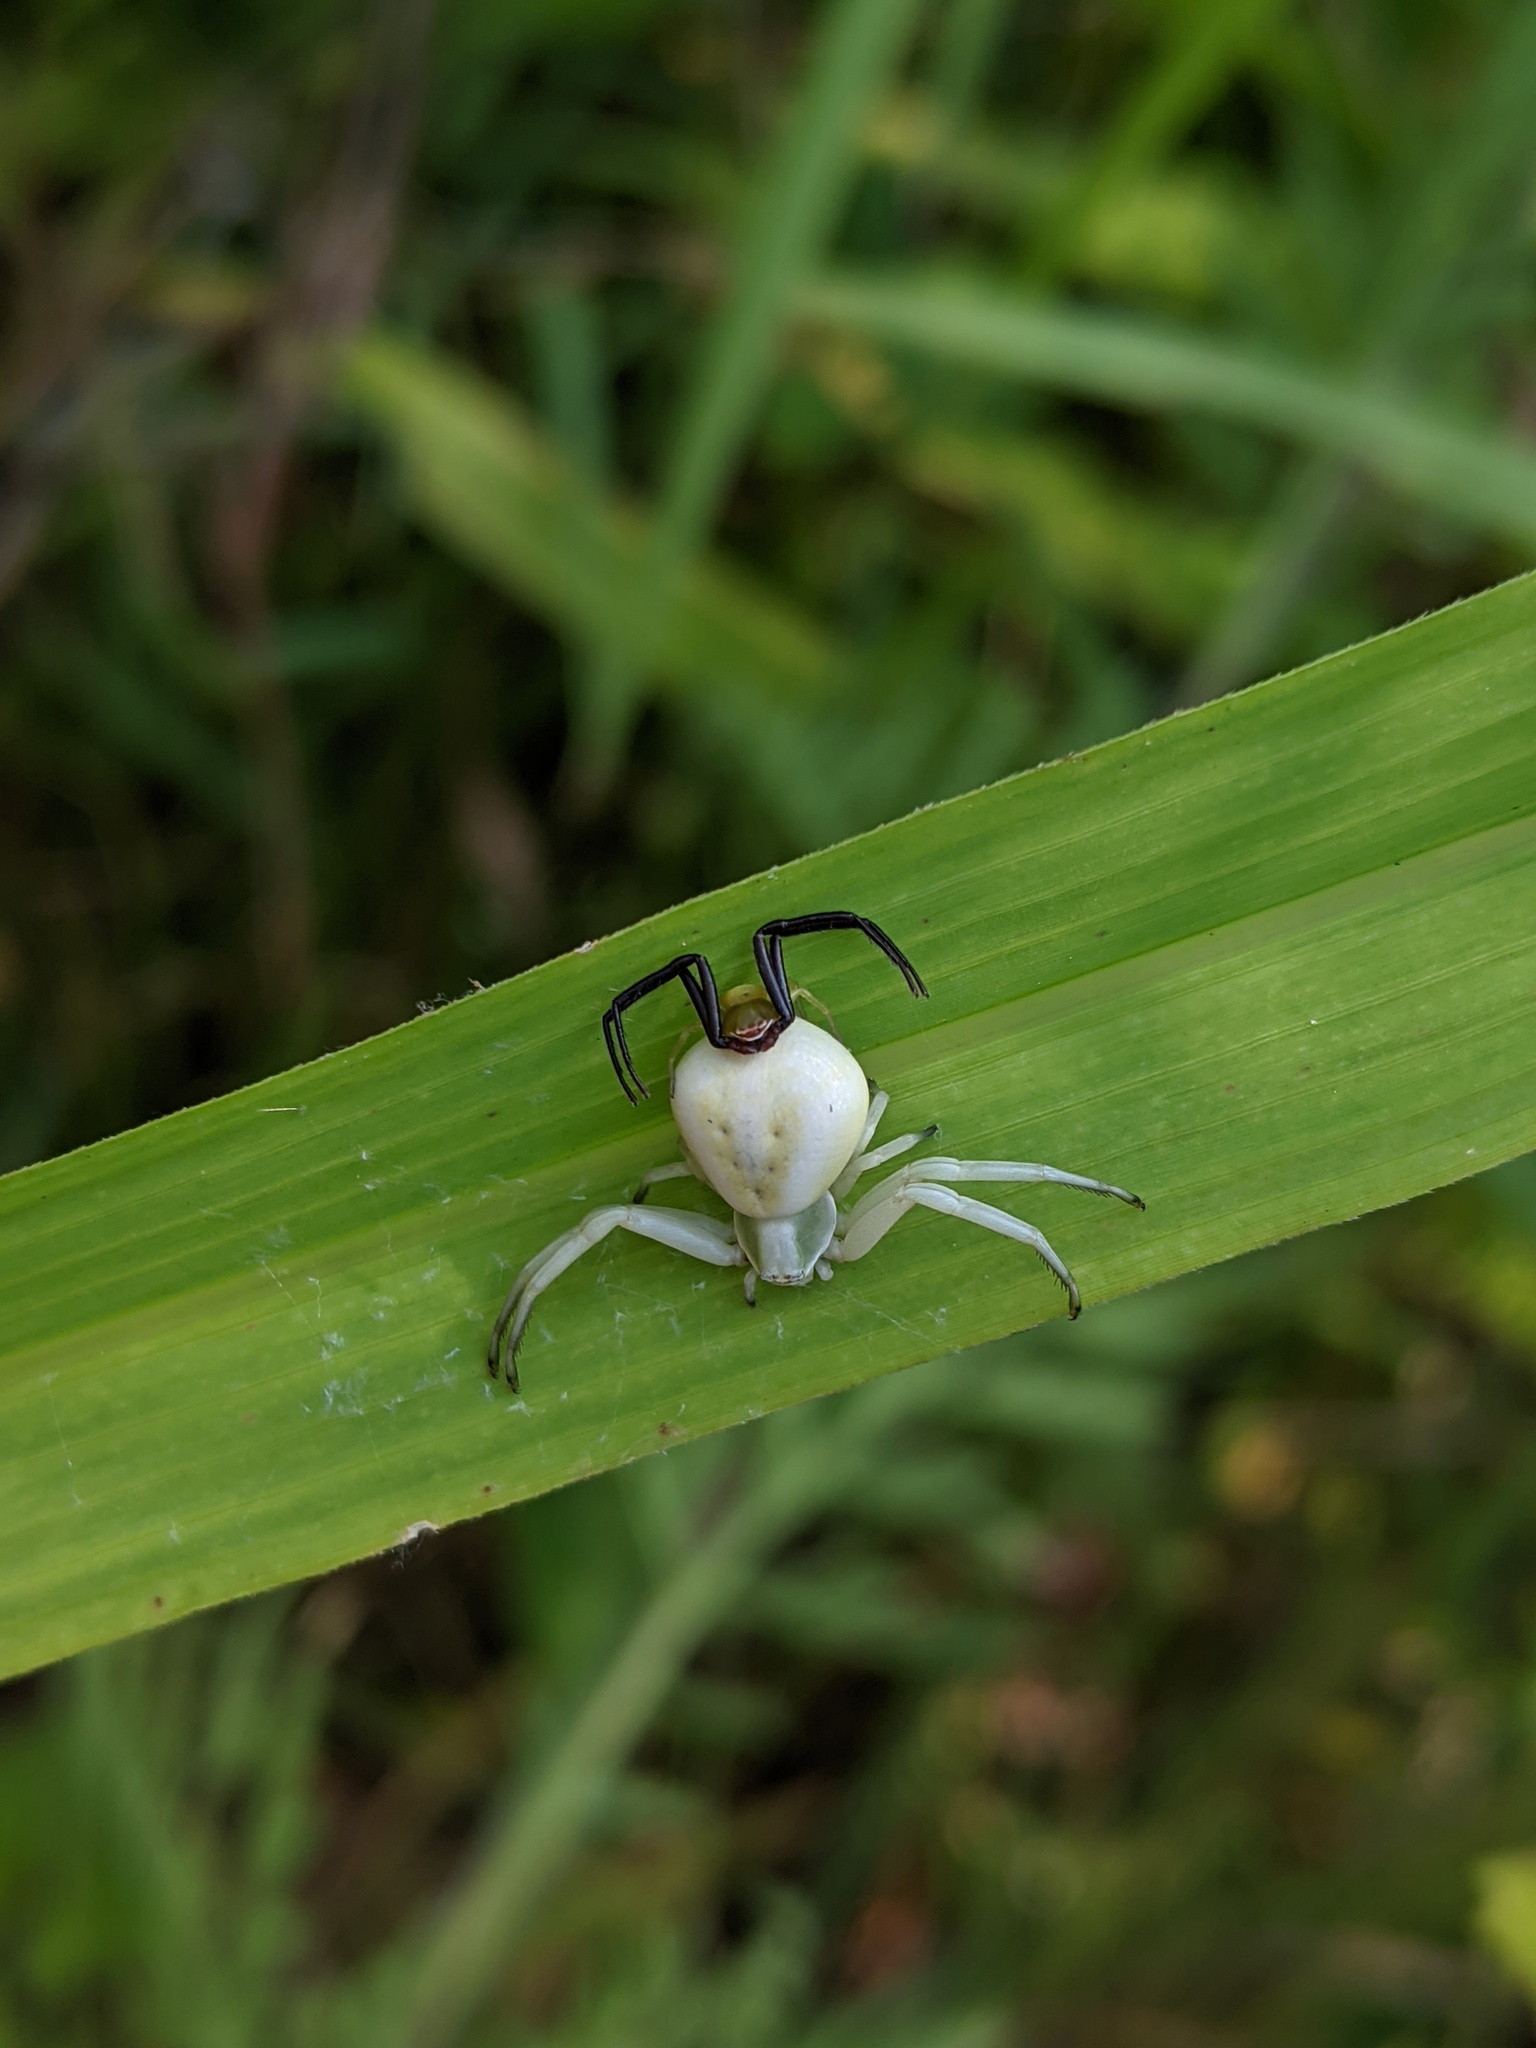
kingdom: Animalia
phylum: Arthropoda
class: Arachnida
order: Araneae
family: Thomisidae
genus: Misumenoides
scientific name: Misumenoides formosipes
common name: White-banded crab spider
